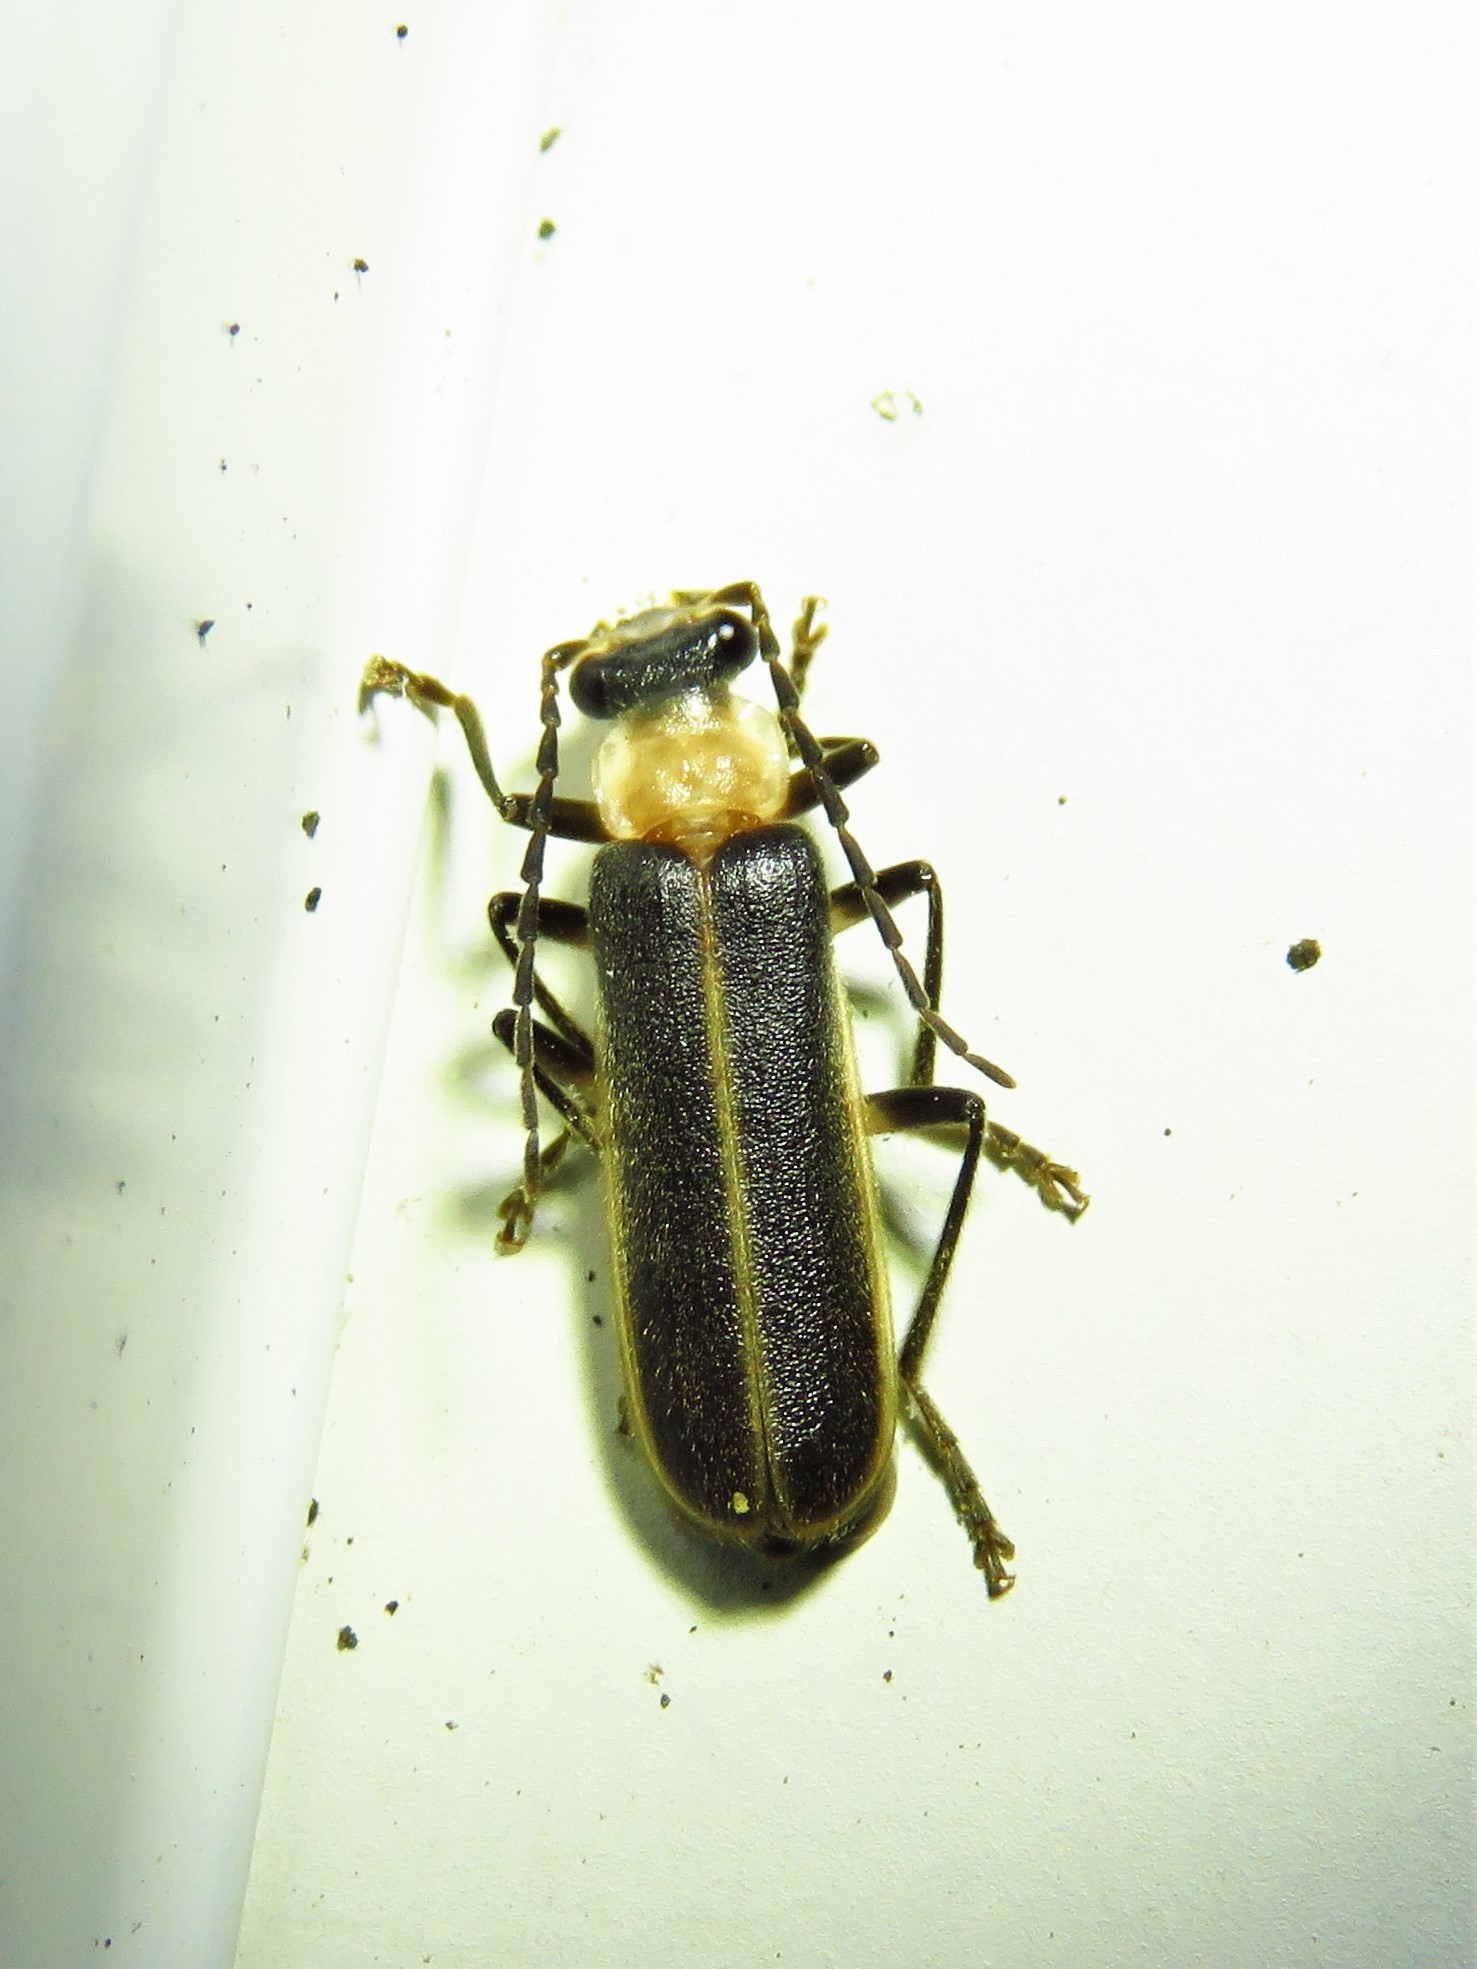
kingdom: Animalia
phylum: Arthropoda
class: Insecta
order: Coleoptera
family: Cantharidae
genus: Podabrus
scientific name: Podabrus flavicollis
